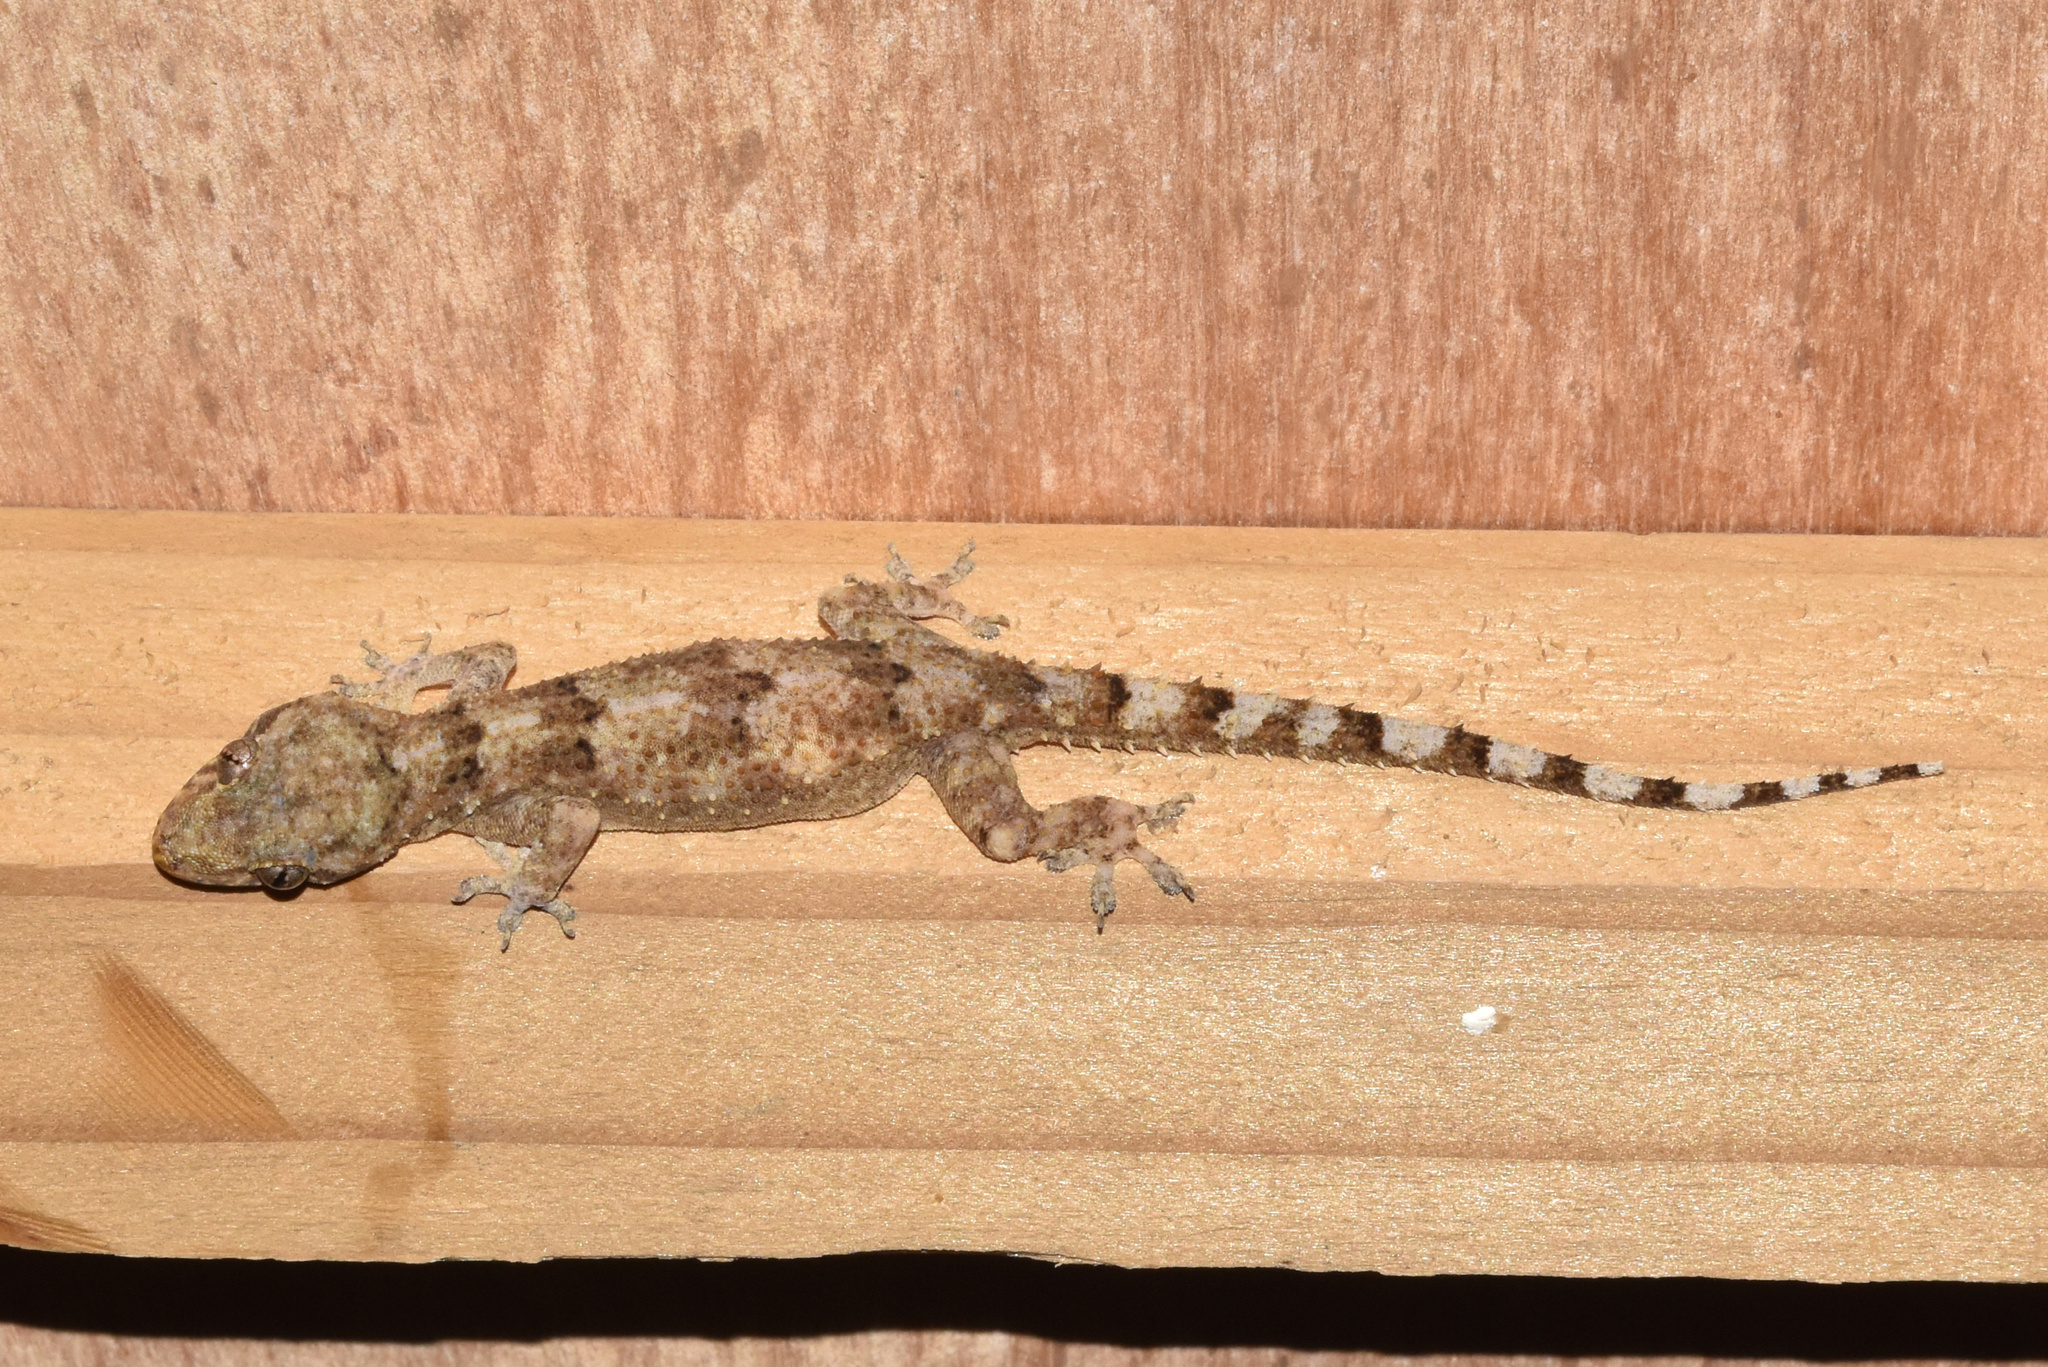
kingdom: Animalia
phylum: Chordata
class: Squamata
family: Gekkonidae
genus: Hemidactylus
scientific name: Hemidactylus mabouia
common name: House gecko
